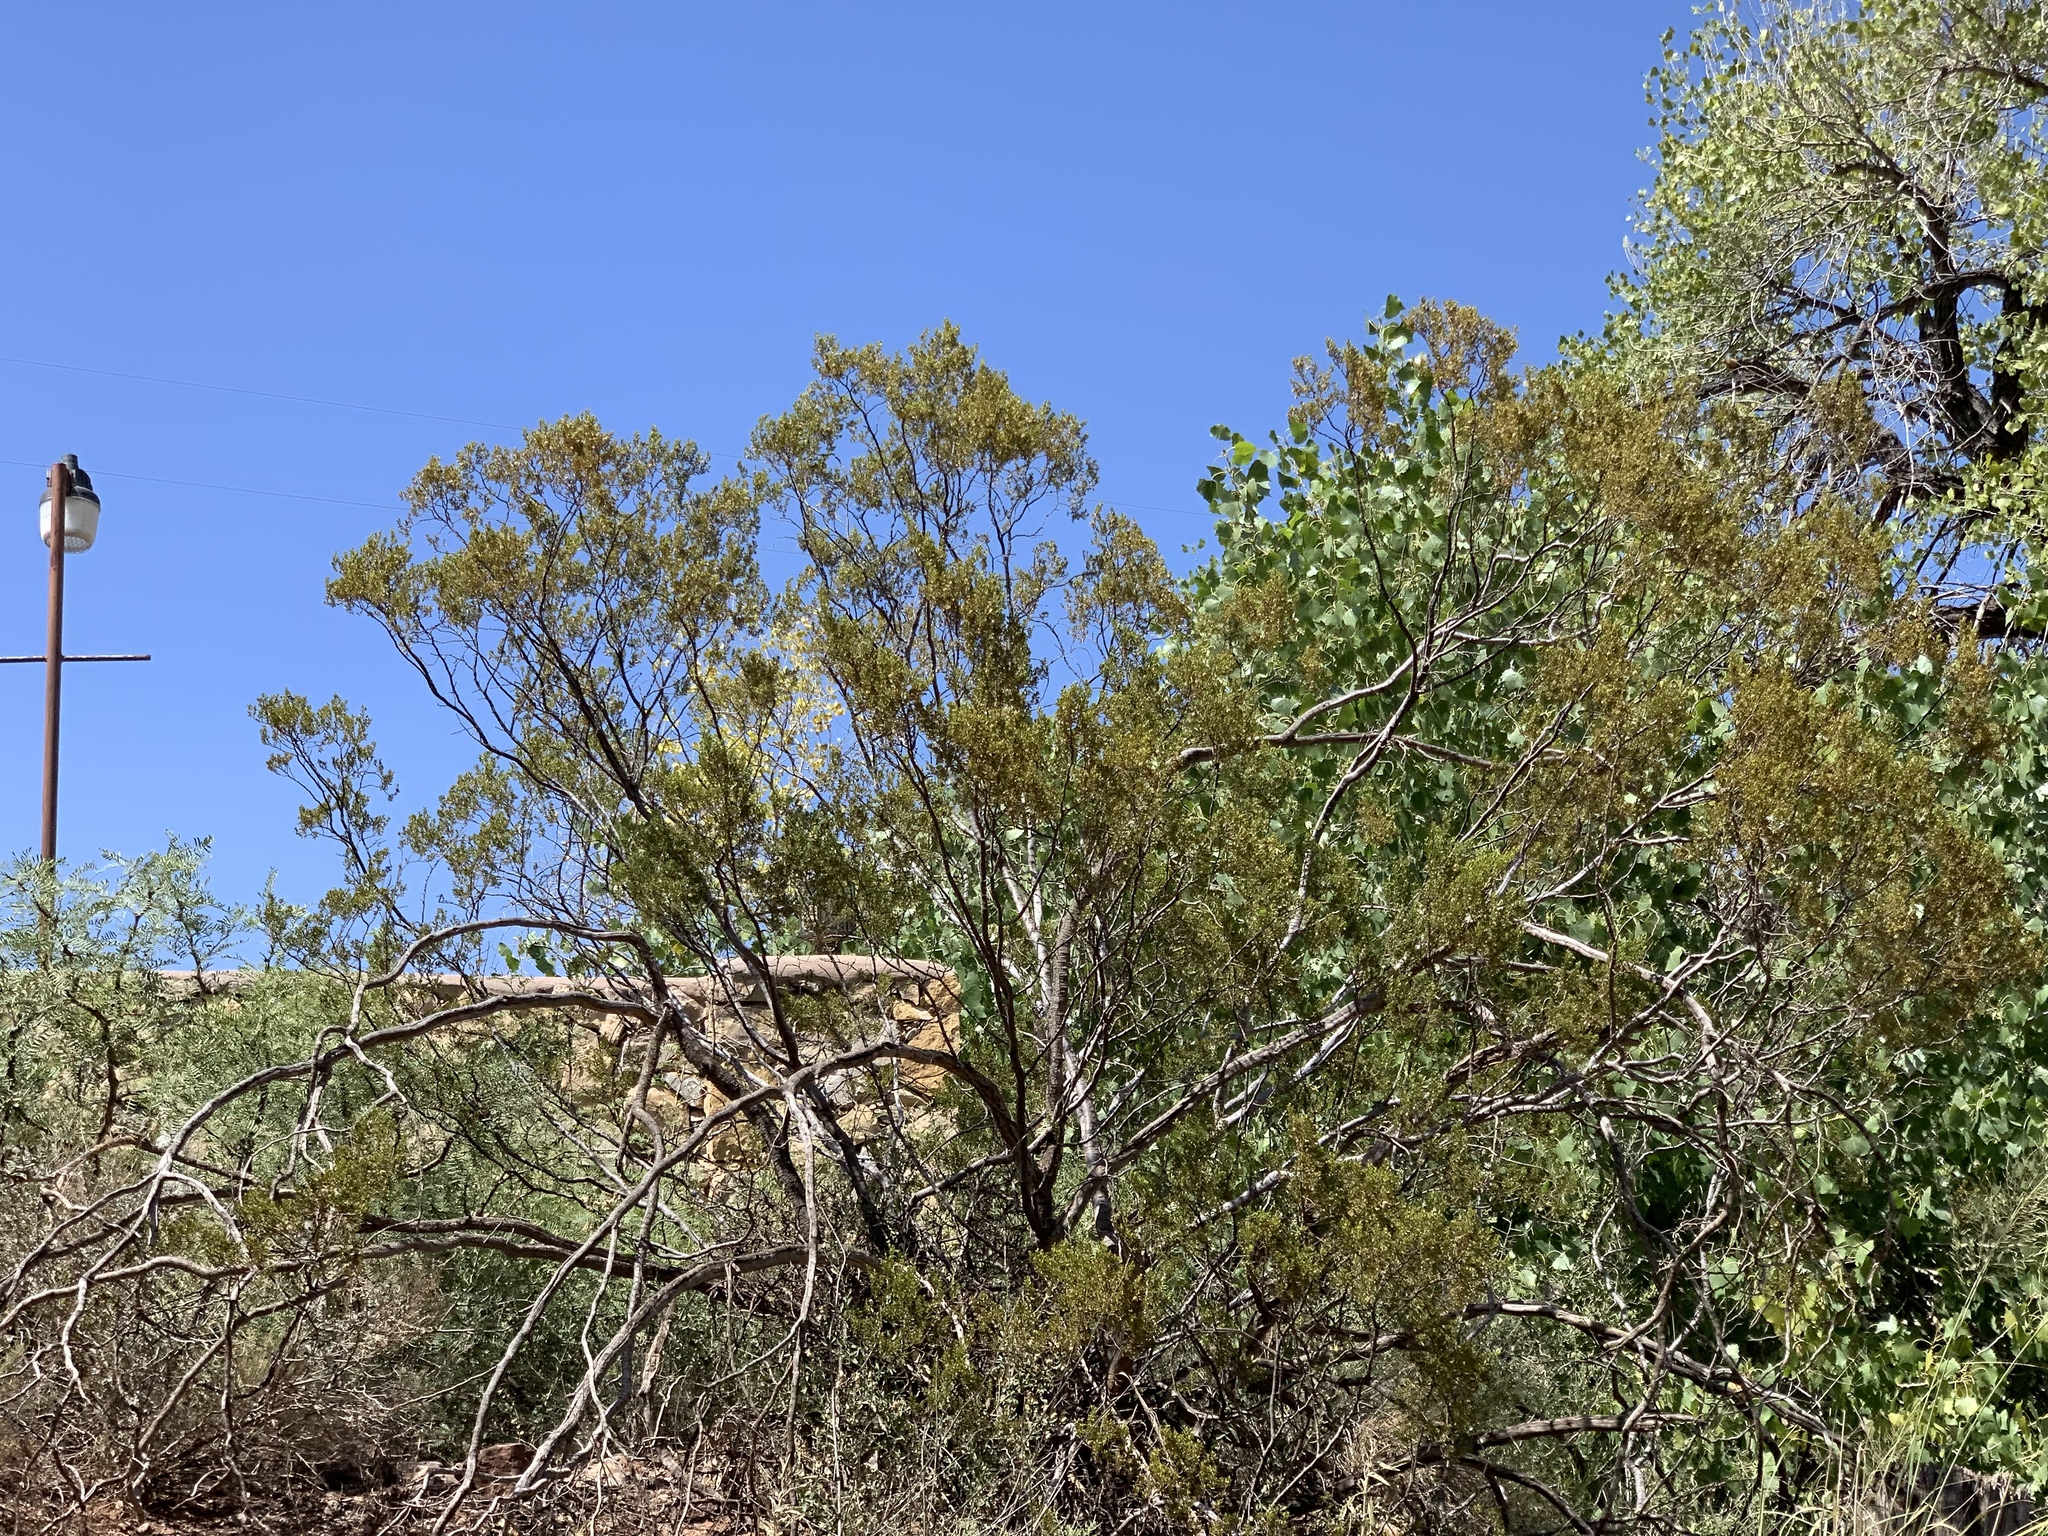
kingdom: Plantae
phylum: Tracheophyta
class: Magnoliopsida
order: Zygophyllales
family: Zygophyllaceae
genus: Larrea
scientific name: Larrea tridentata
